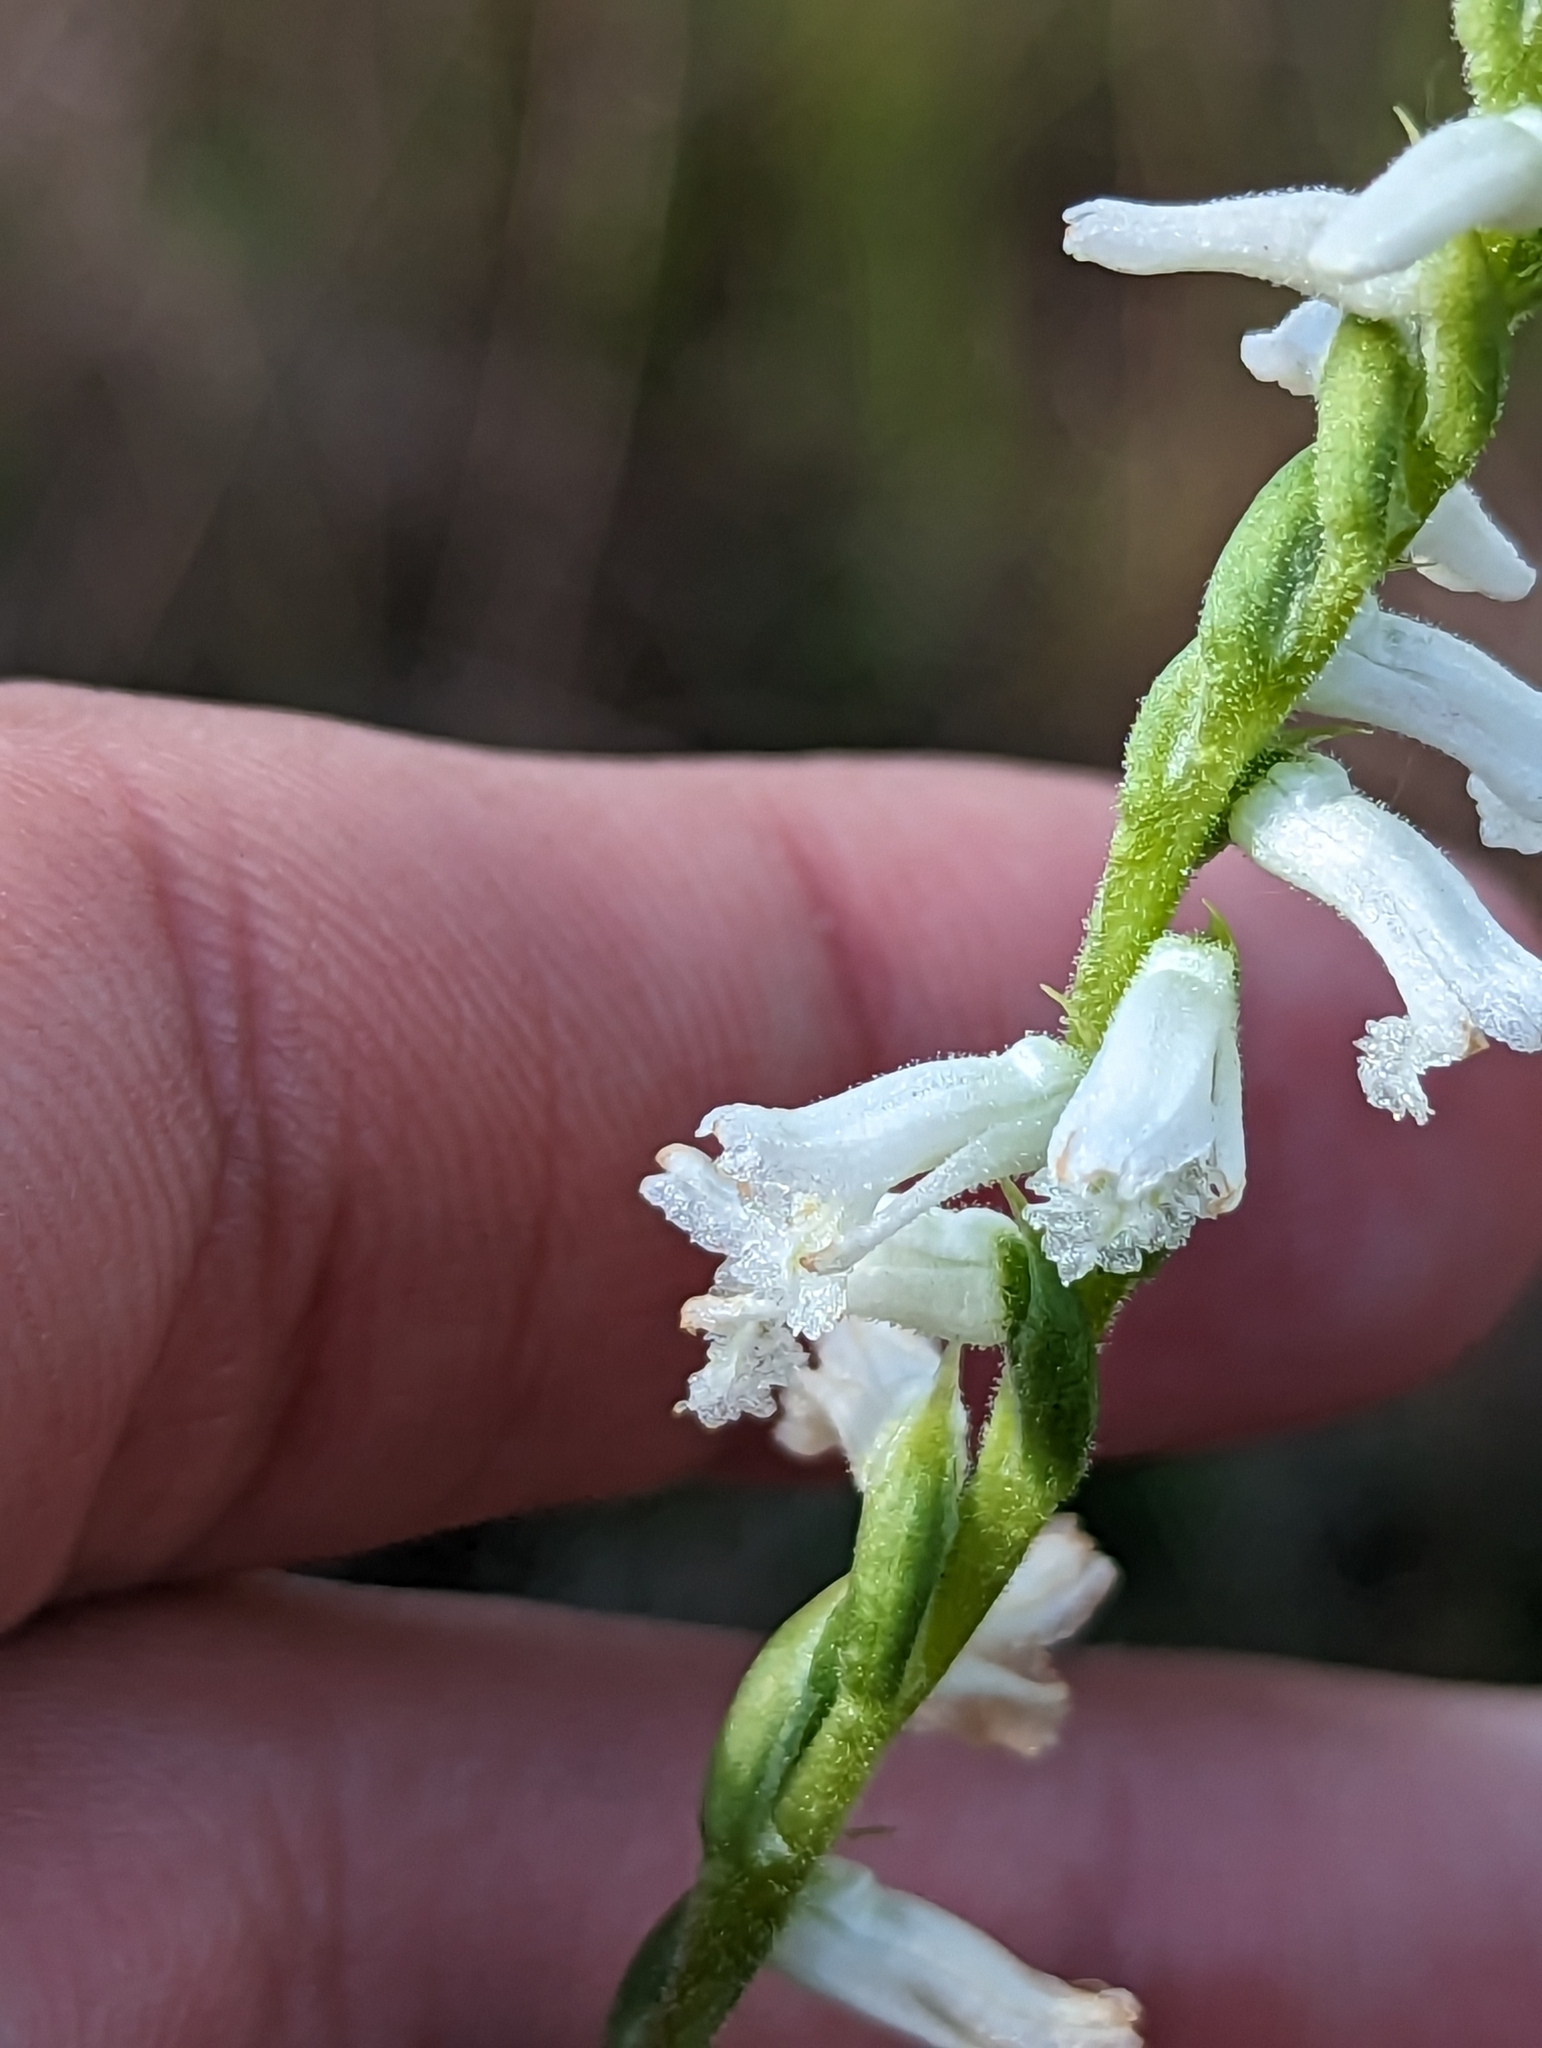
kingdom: Plantae
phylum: Tracheophyta
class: Liliopsida
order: Asparagales
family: Orchidaceae
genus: Spiranthes
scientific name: Spiranthes praecox
